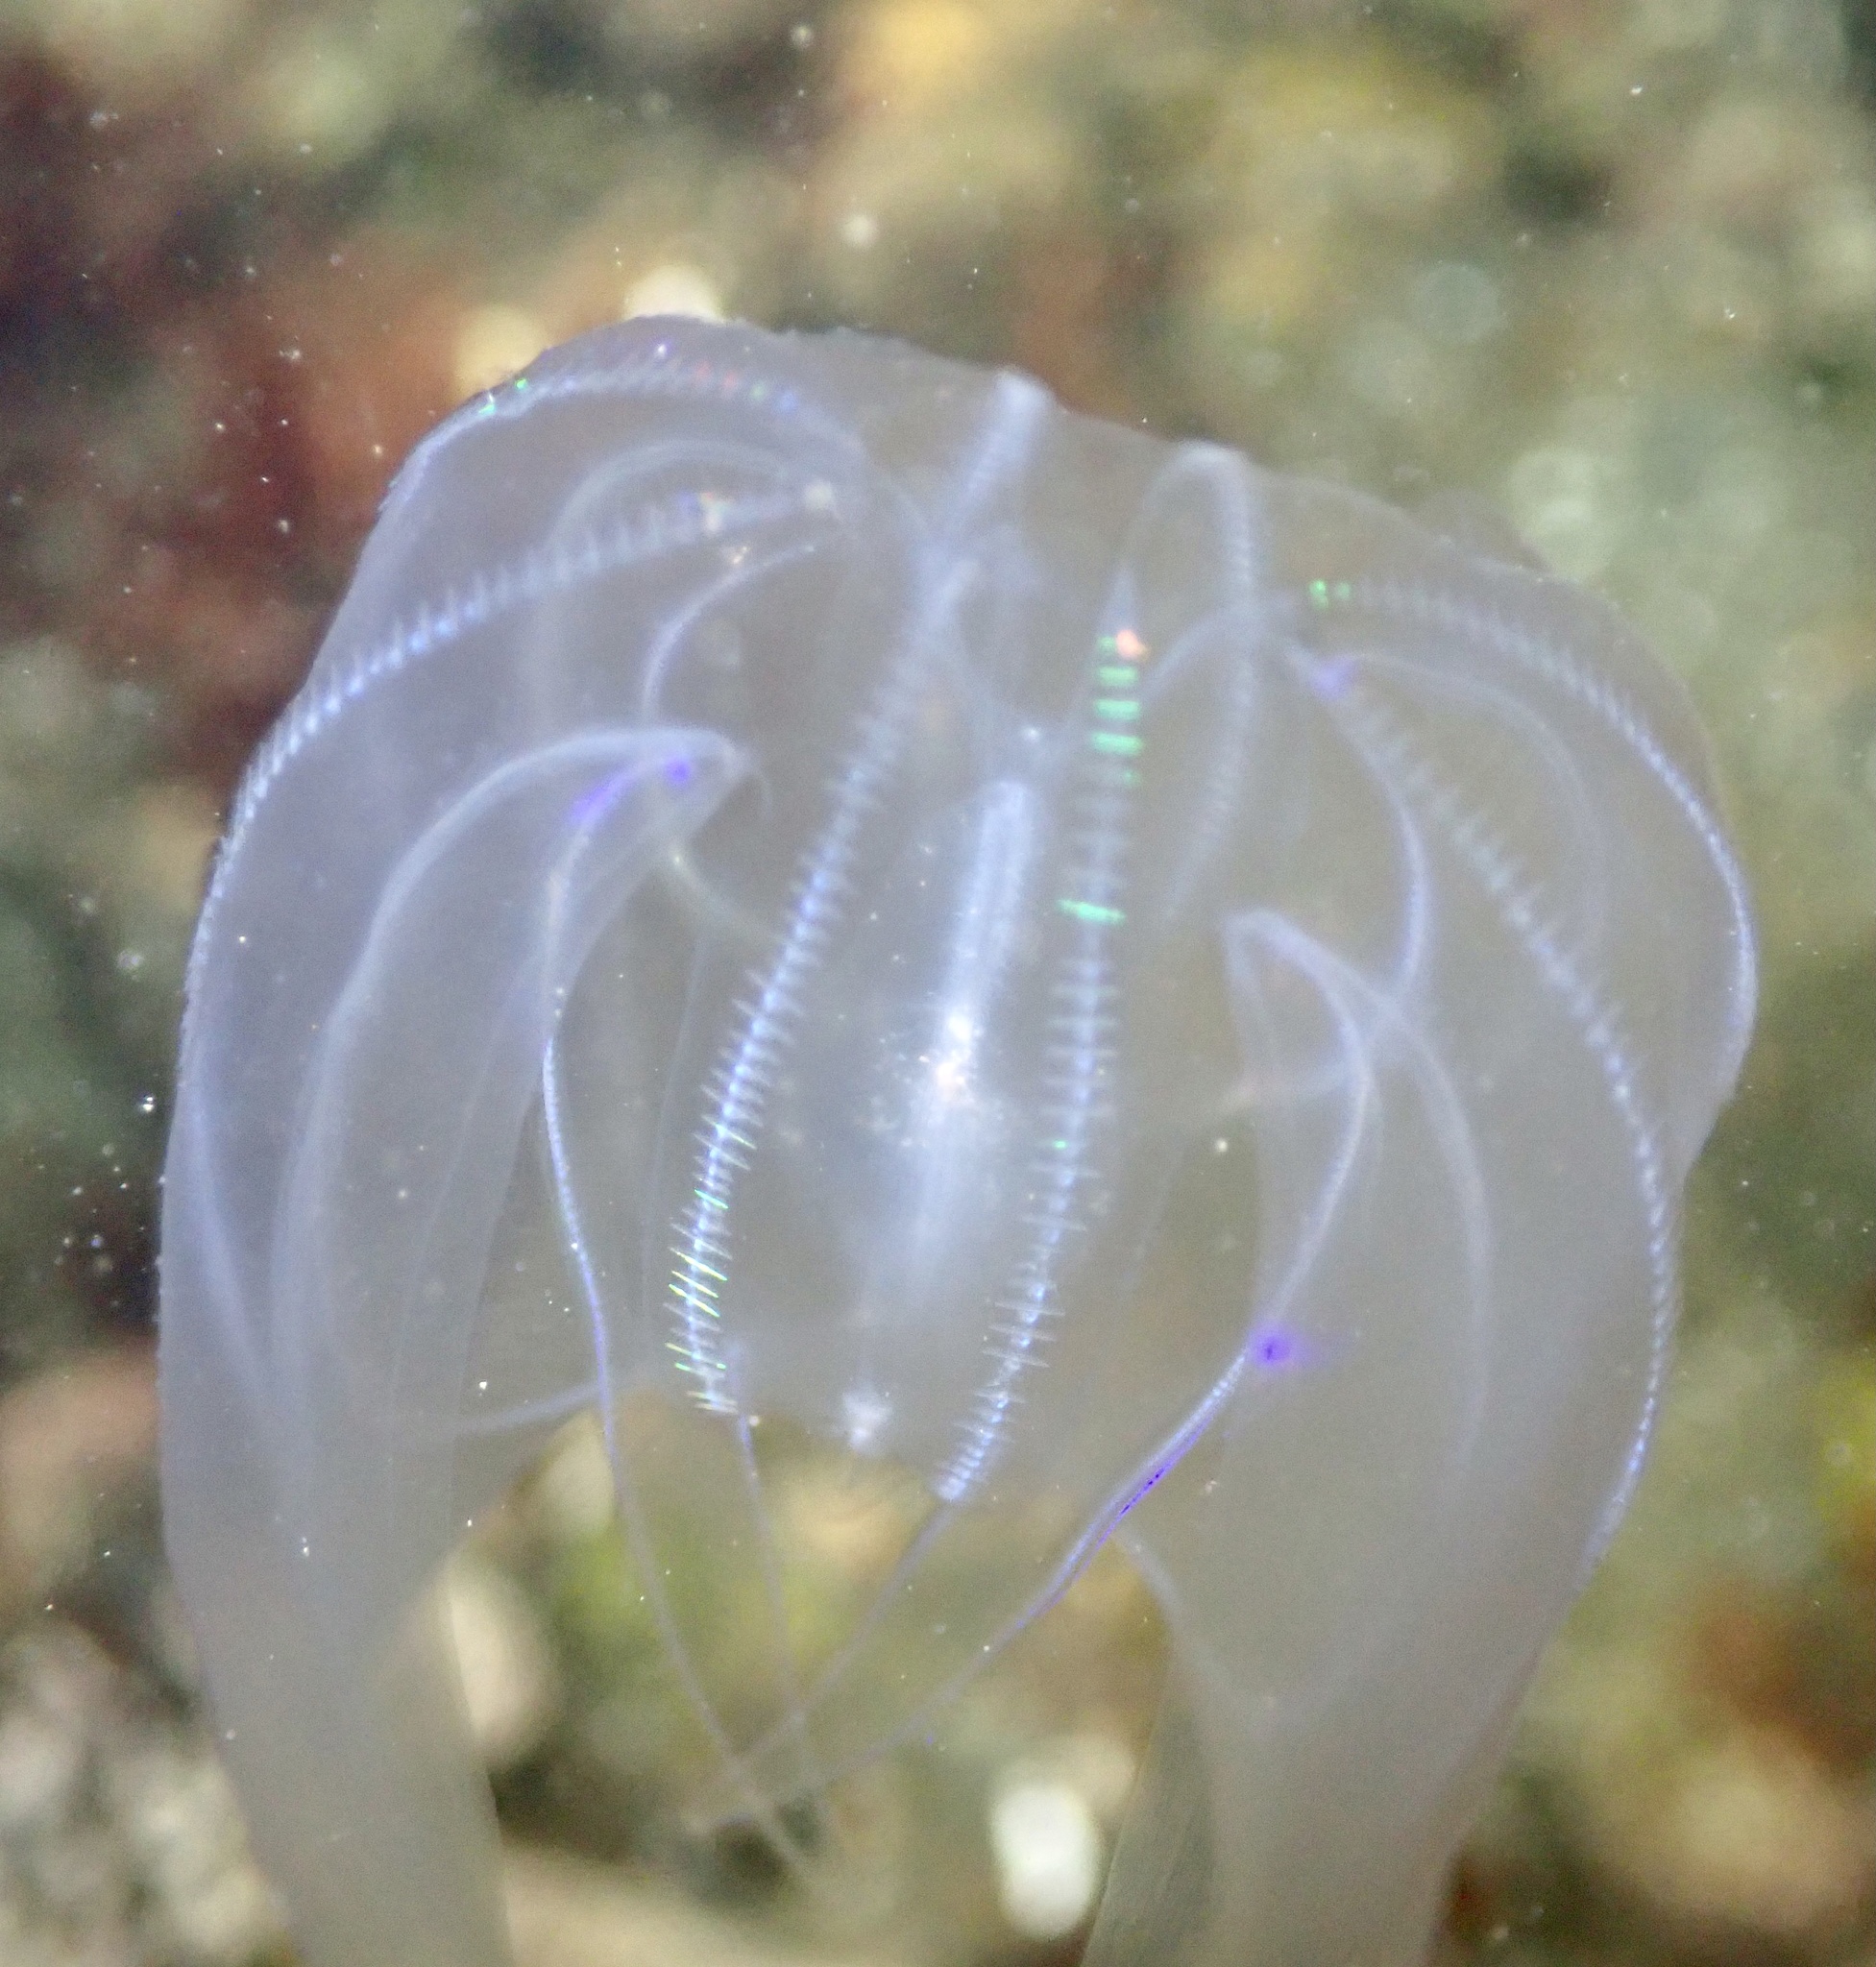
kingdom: Animalia
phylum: Ctenophora
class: Tentaculata
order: Lobata
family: Bolinopsidae
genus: Mnemiopsis
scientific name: Mnemiopsis leidyi
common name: American comb jelly
